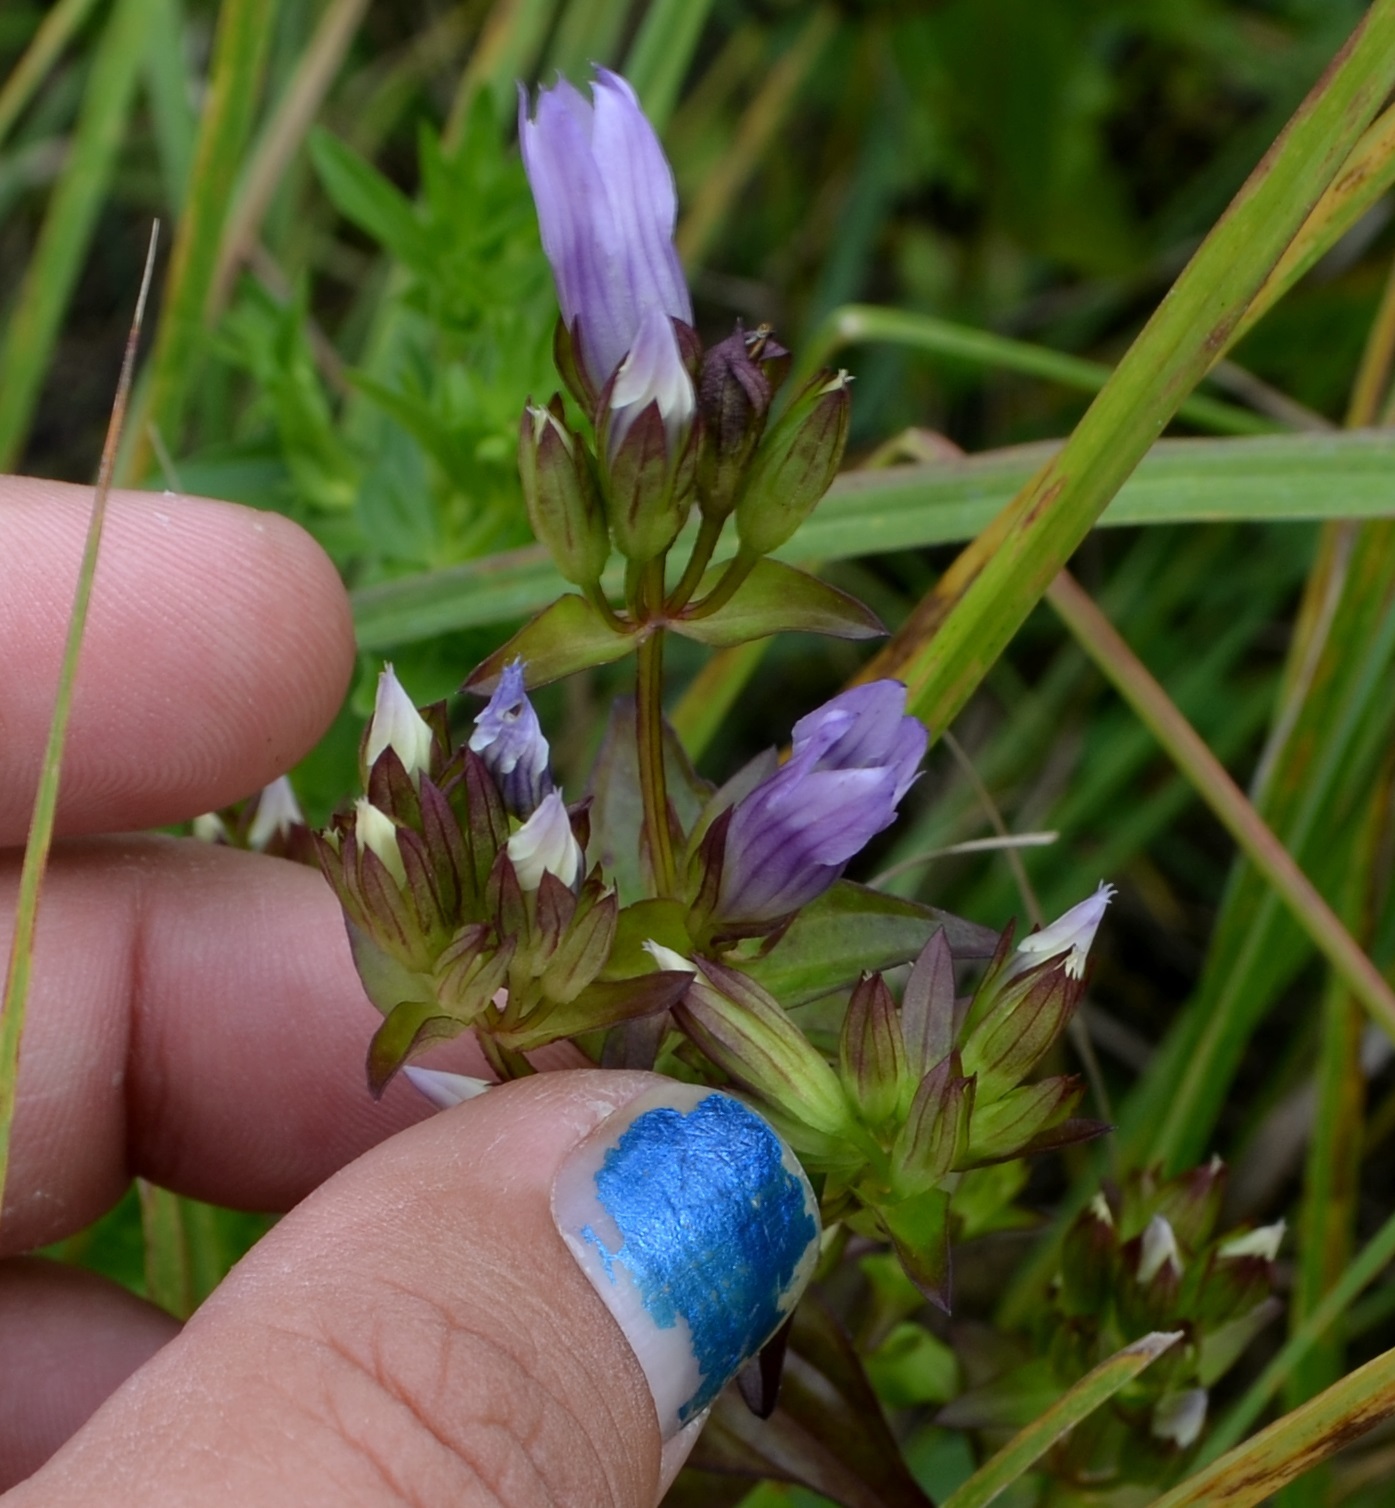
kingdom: Plantae
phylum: Tracheophyta
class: Magnoliopsida
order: Gentianales
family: Gentianaceae
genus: Gentianella
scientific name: Gentianella quinquefolia
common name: Agueweed
